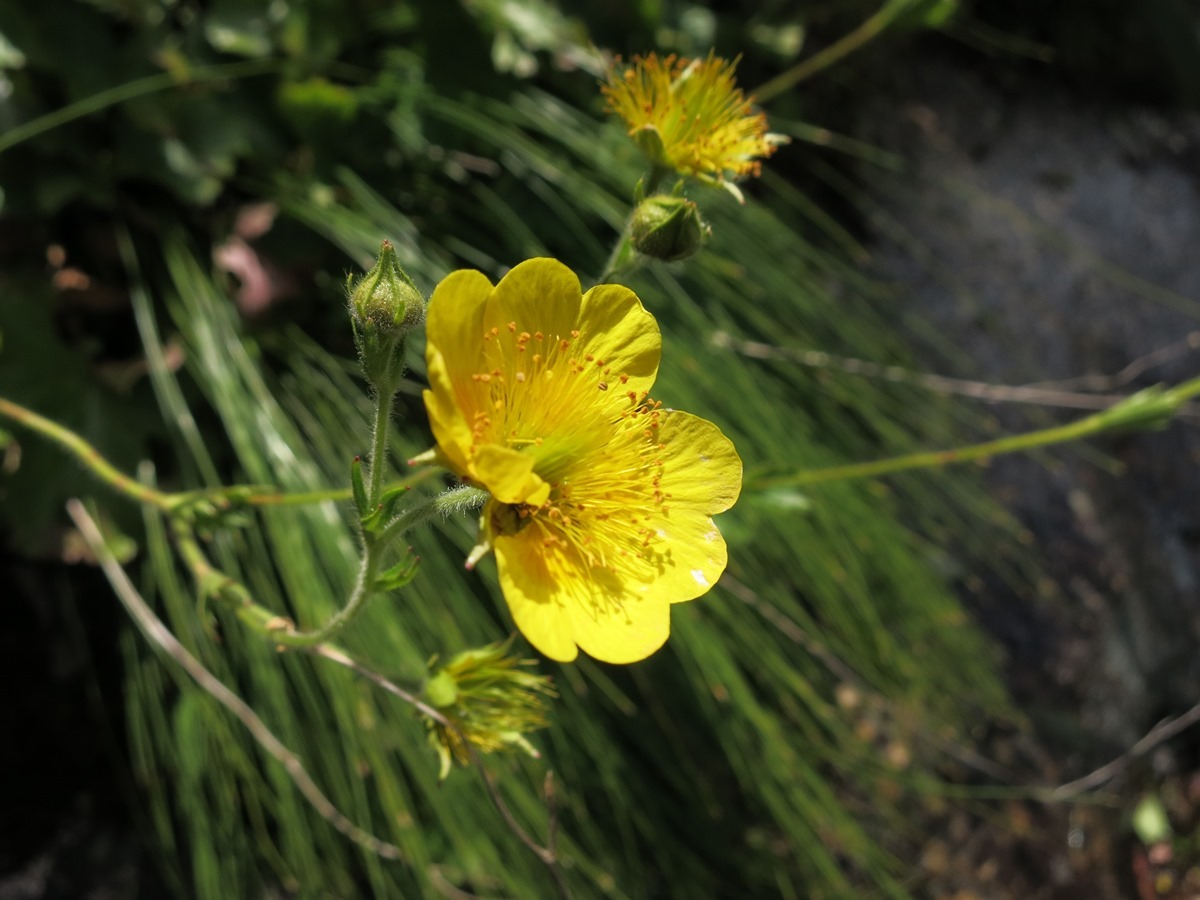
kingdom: Plantae
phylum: Tracheophyta
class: Magnoliopsida
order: Rosales
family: Rosaceae
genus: Geum
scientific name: Geum radiatum
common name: Spreaded avens
